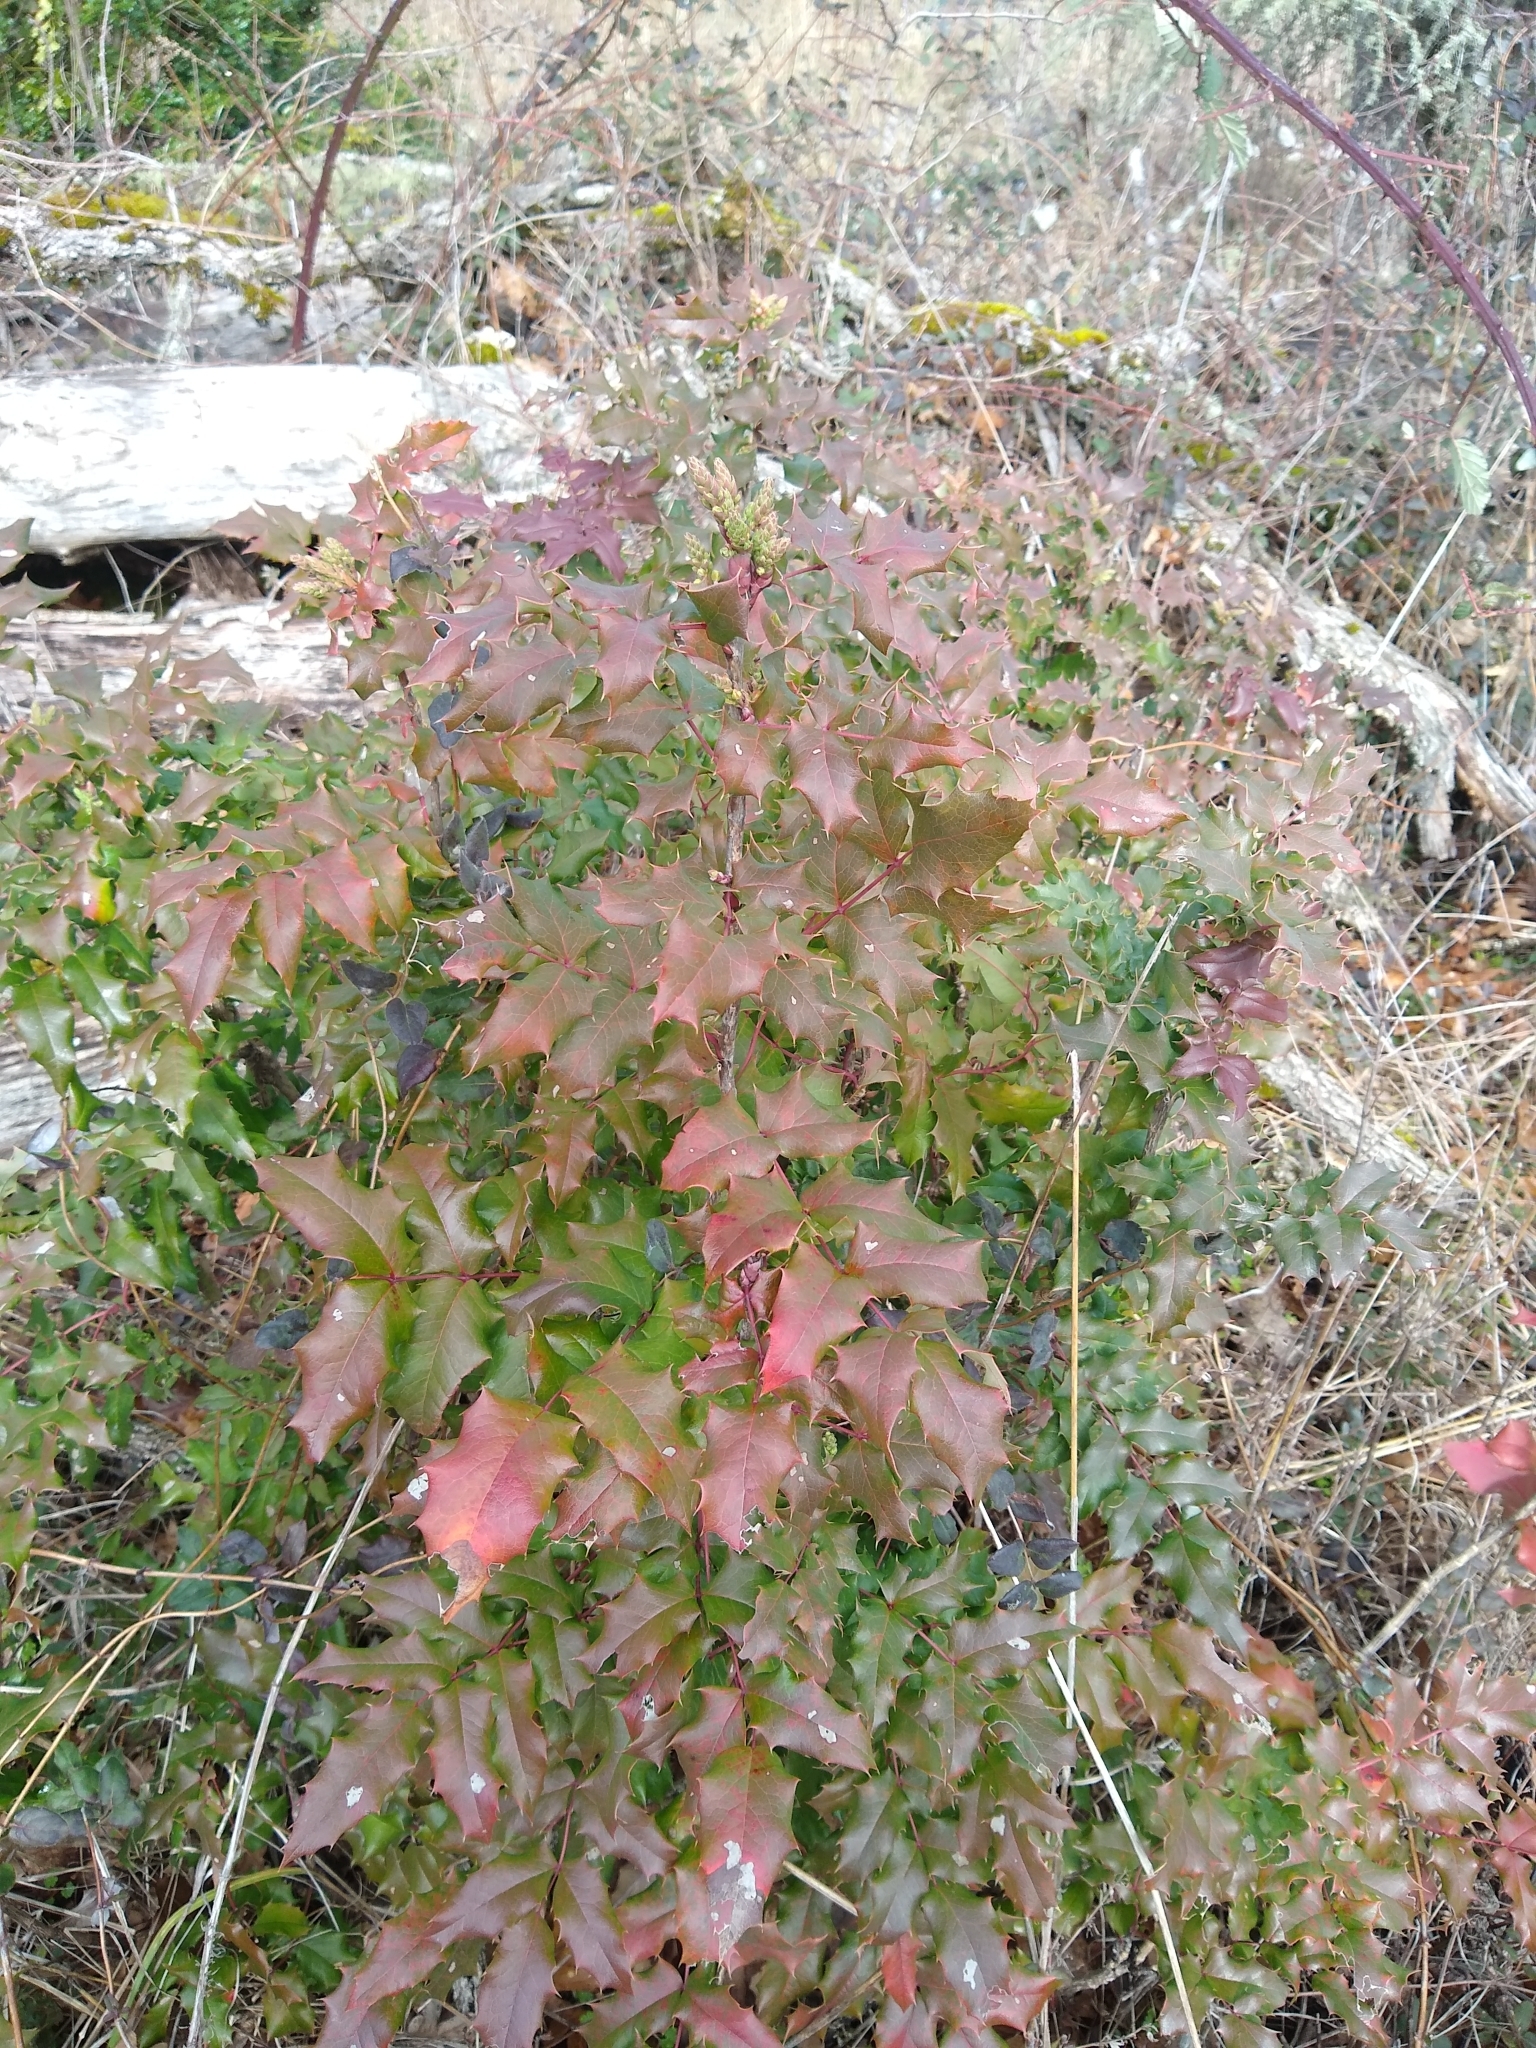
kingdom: Plantae
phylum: Tracheophyta
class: Magnoliopsida
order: Ranunculales
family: Berberidaceae
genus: Mahonia
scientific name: Mahonia aquifolium
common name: Oregon-grape
